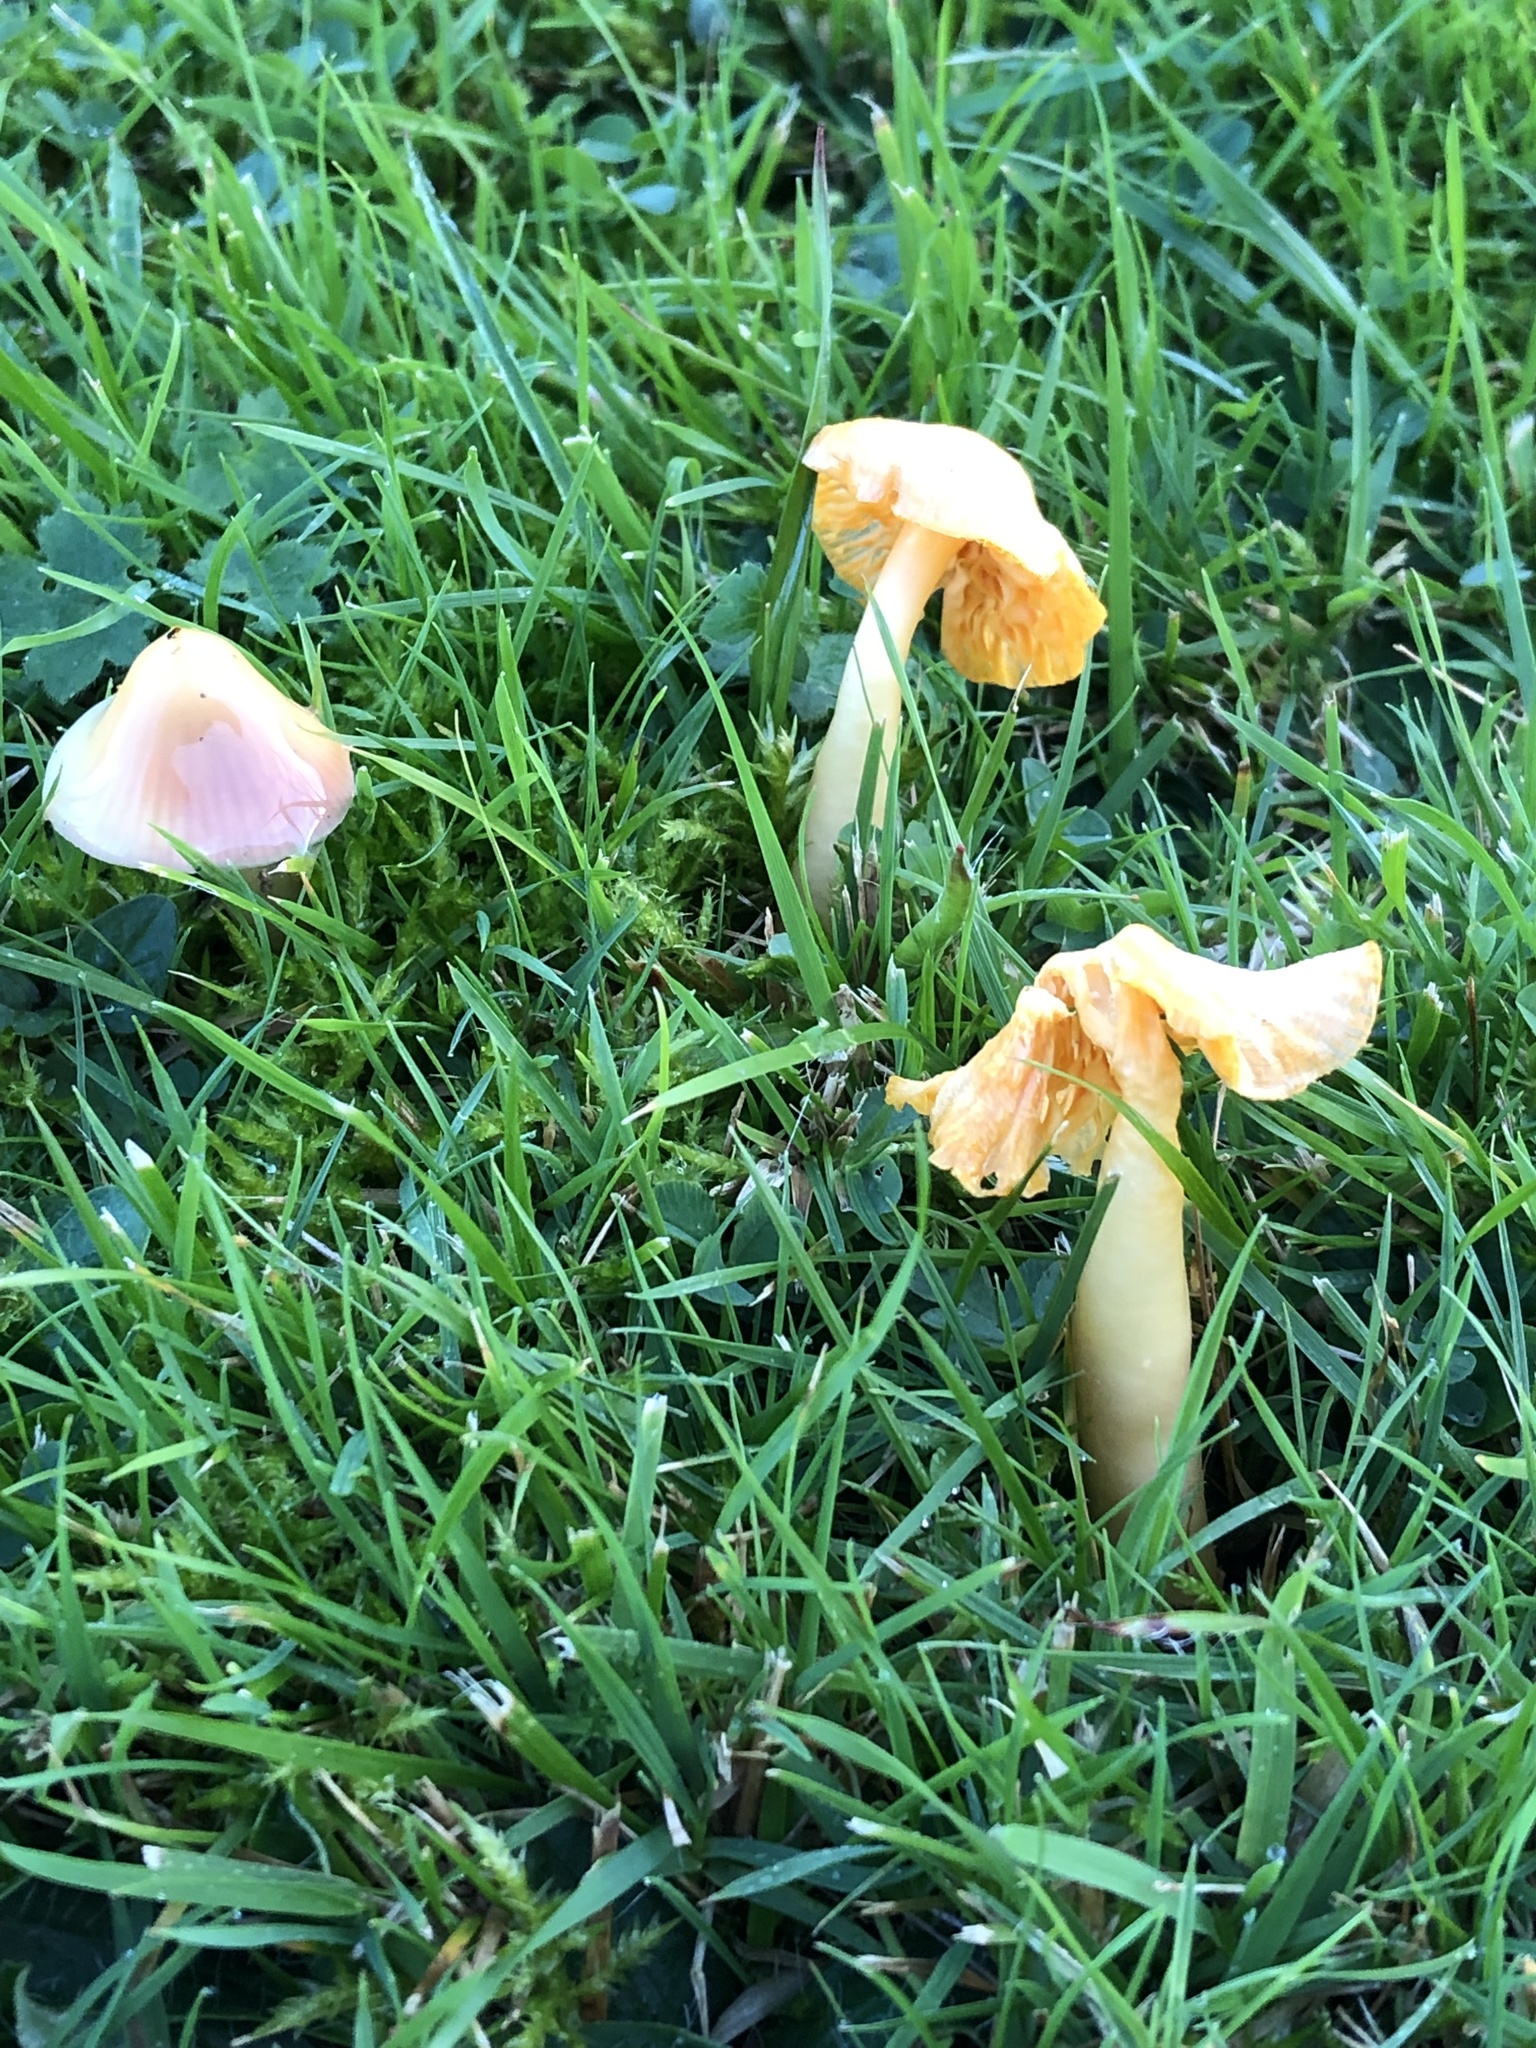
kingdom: Fungi
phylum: Basidiomycota
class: Agaricomycetes
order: Agaricales
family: Hygrophoraceae
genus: Gliophorus
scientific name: Gliophorus psittacinus
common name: Parrot wax-cap
